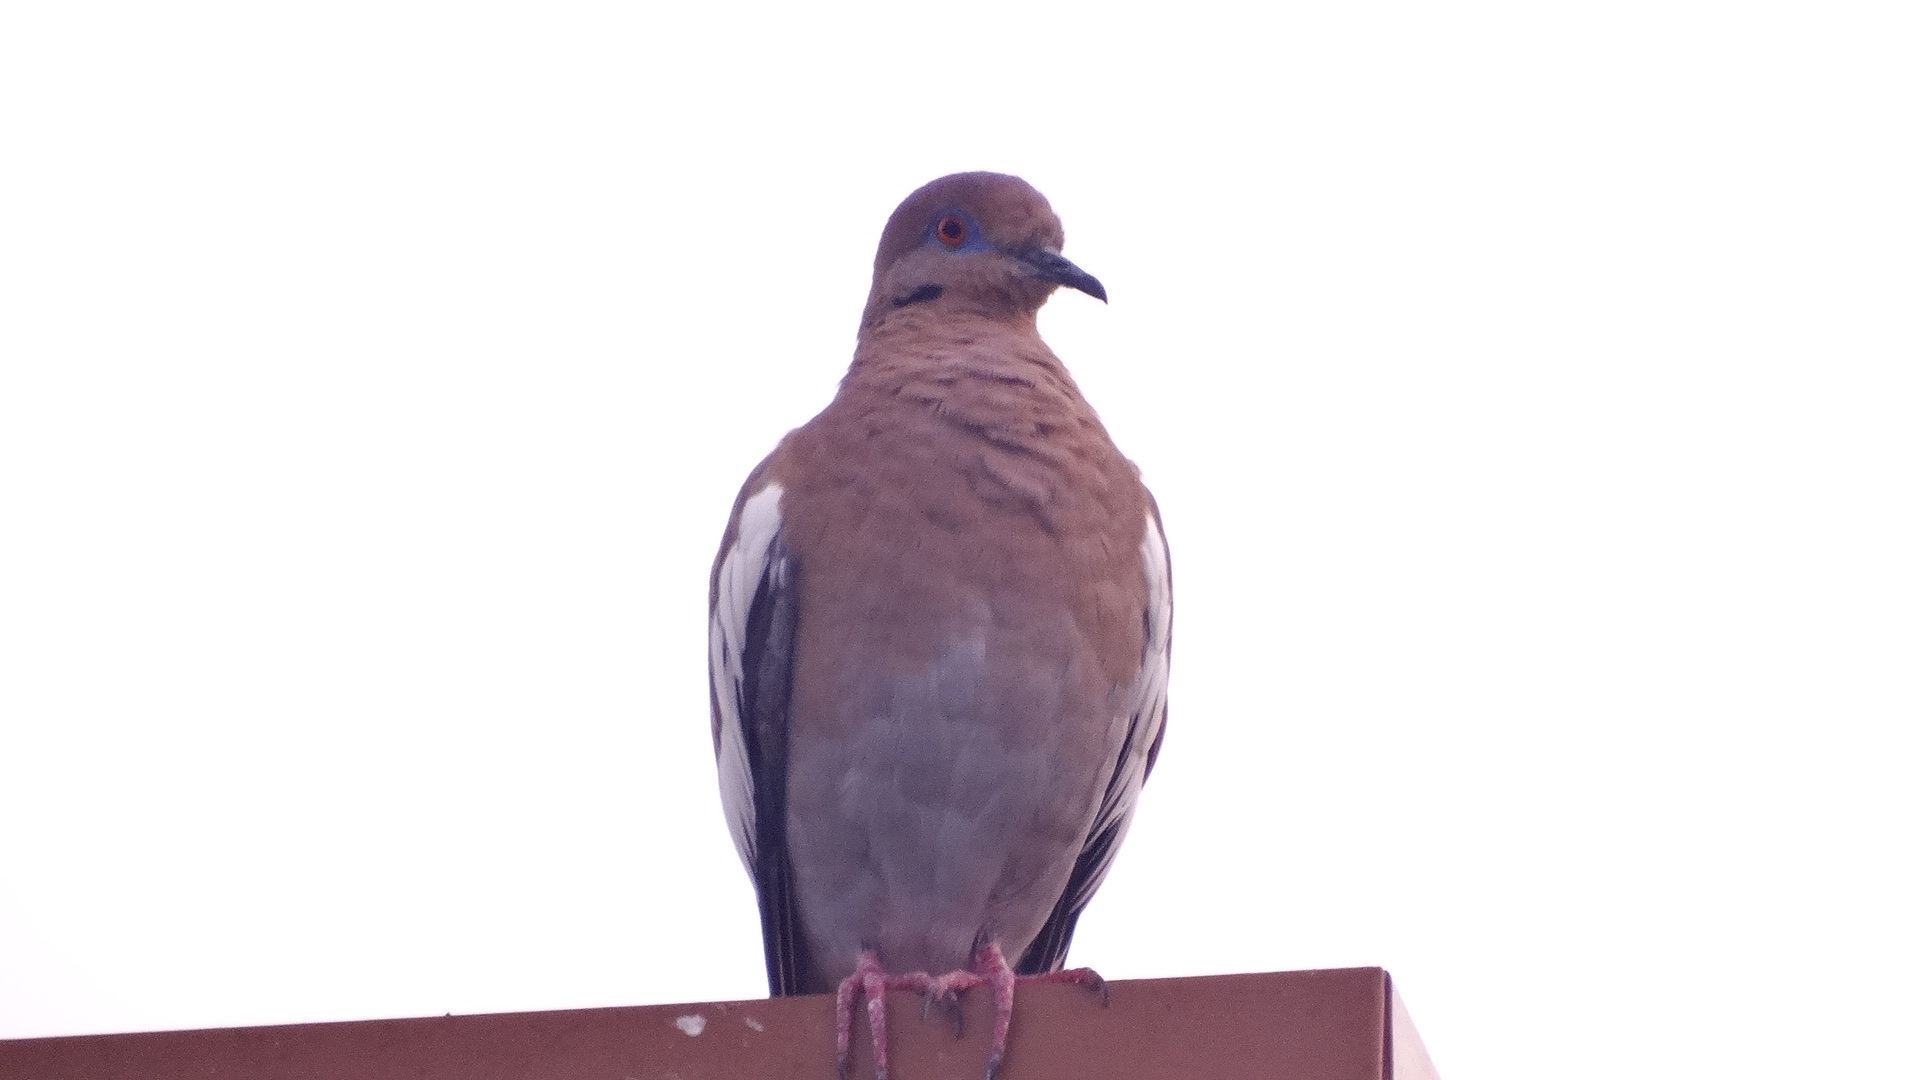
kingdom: Animalia
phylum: Chordata
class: Aves
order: Columbiformes
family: Columbidae
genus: Zenaida
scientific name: Zenaida asiatica
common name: White-winged dove
